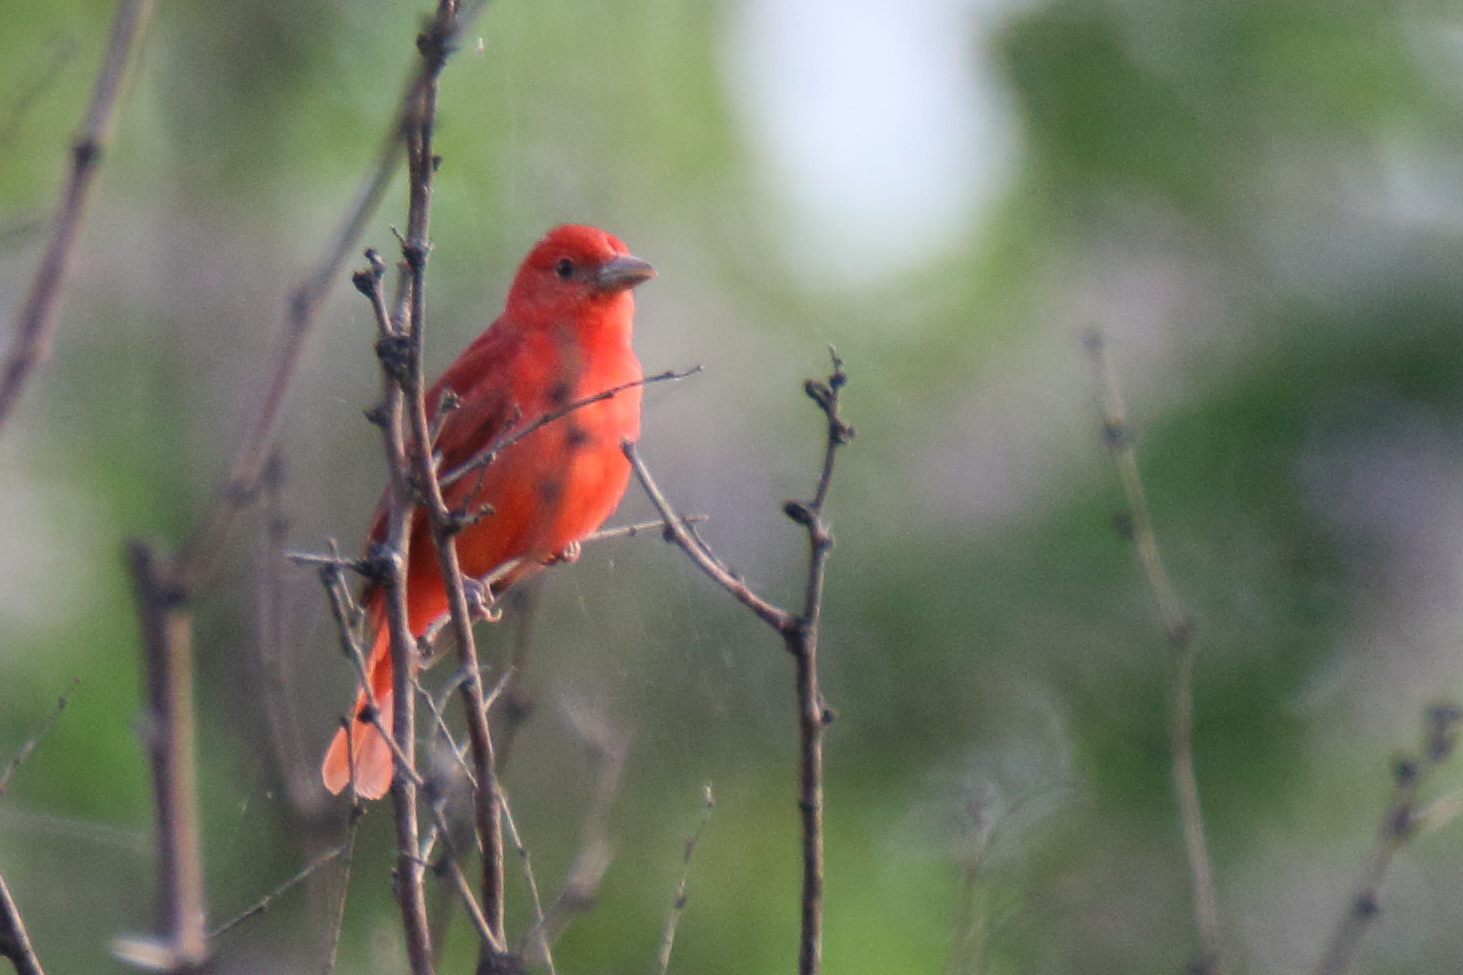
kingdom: Animalia
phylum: Chordata
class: Aves
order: Passeriformes
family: Cardinalidae
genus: Piranga
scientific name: Piranga rubra
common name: Summer tanager
